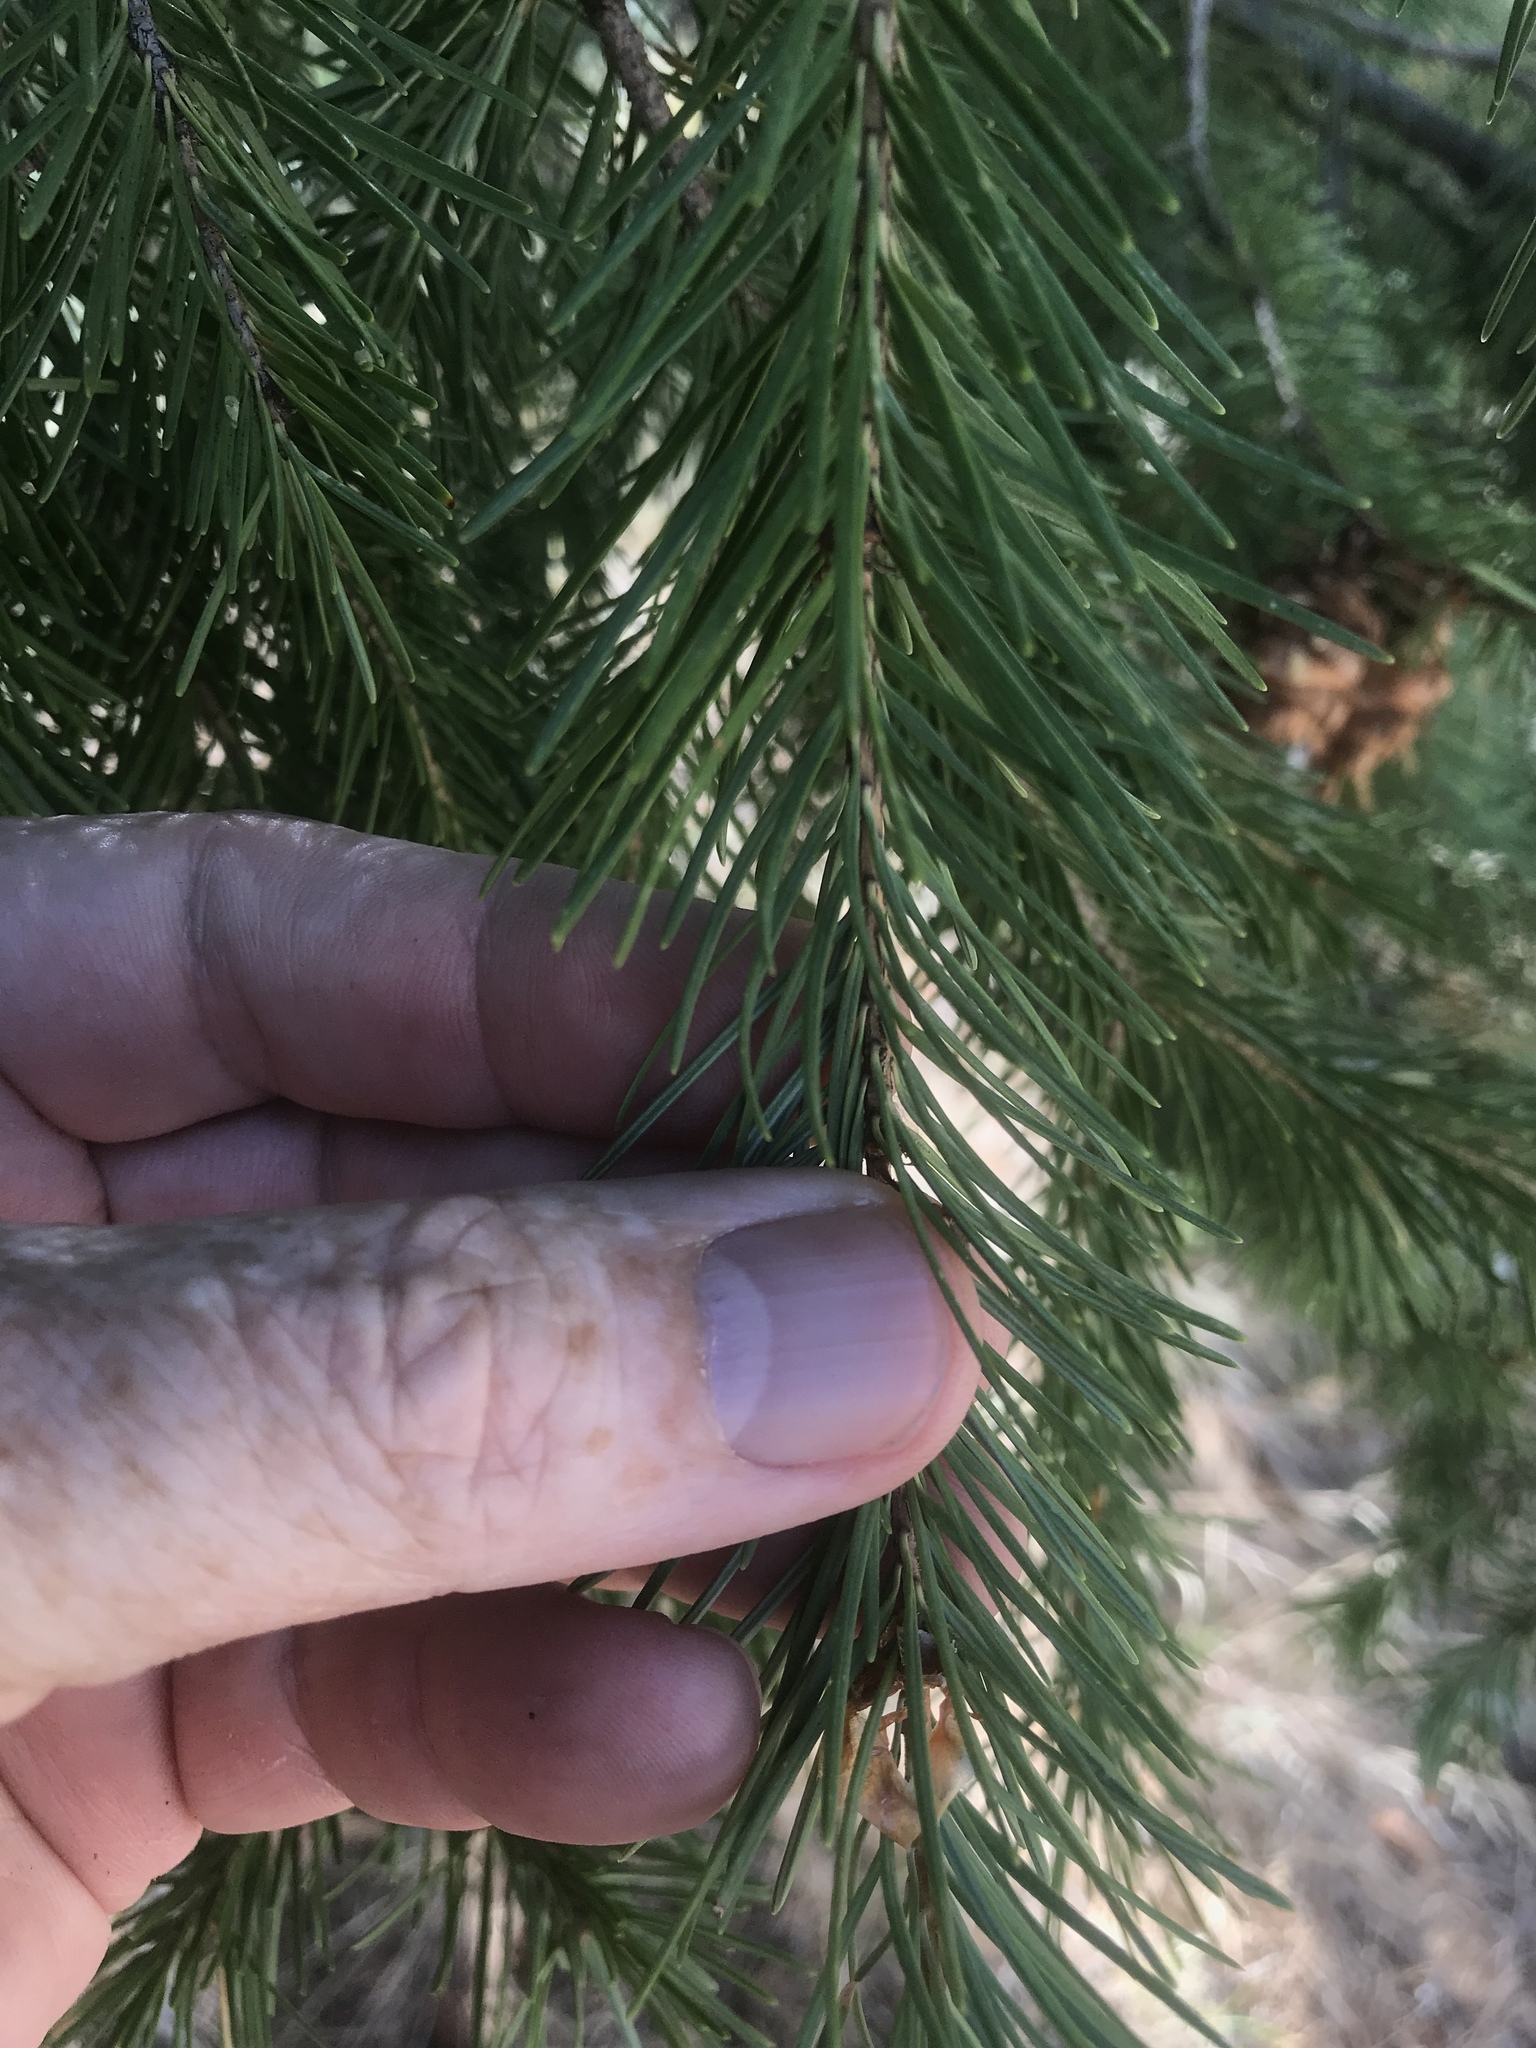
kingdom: Plantae
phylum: Tracheophyta
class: Pinopsida
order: Pinales
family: Pinaceae
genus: Pseudotsuga
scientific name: Pseudotsuga menziesii
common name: Douglas fir
